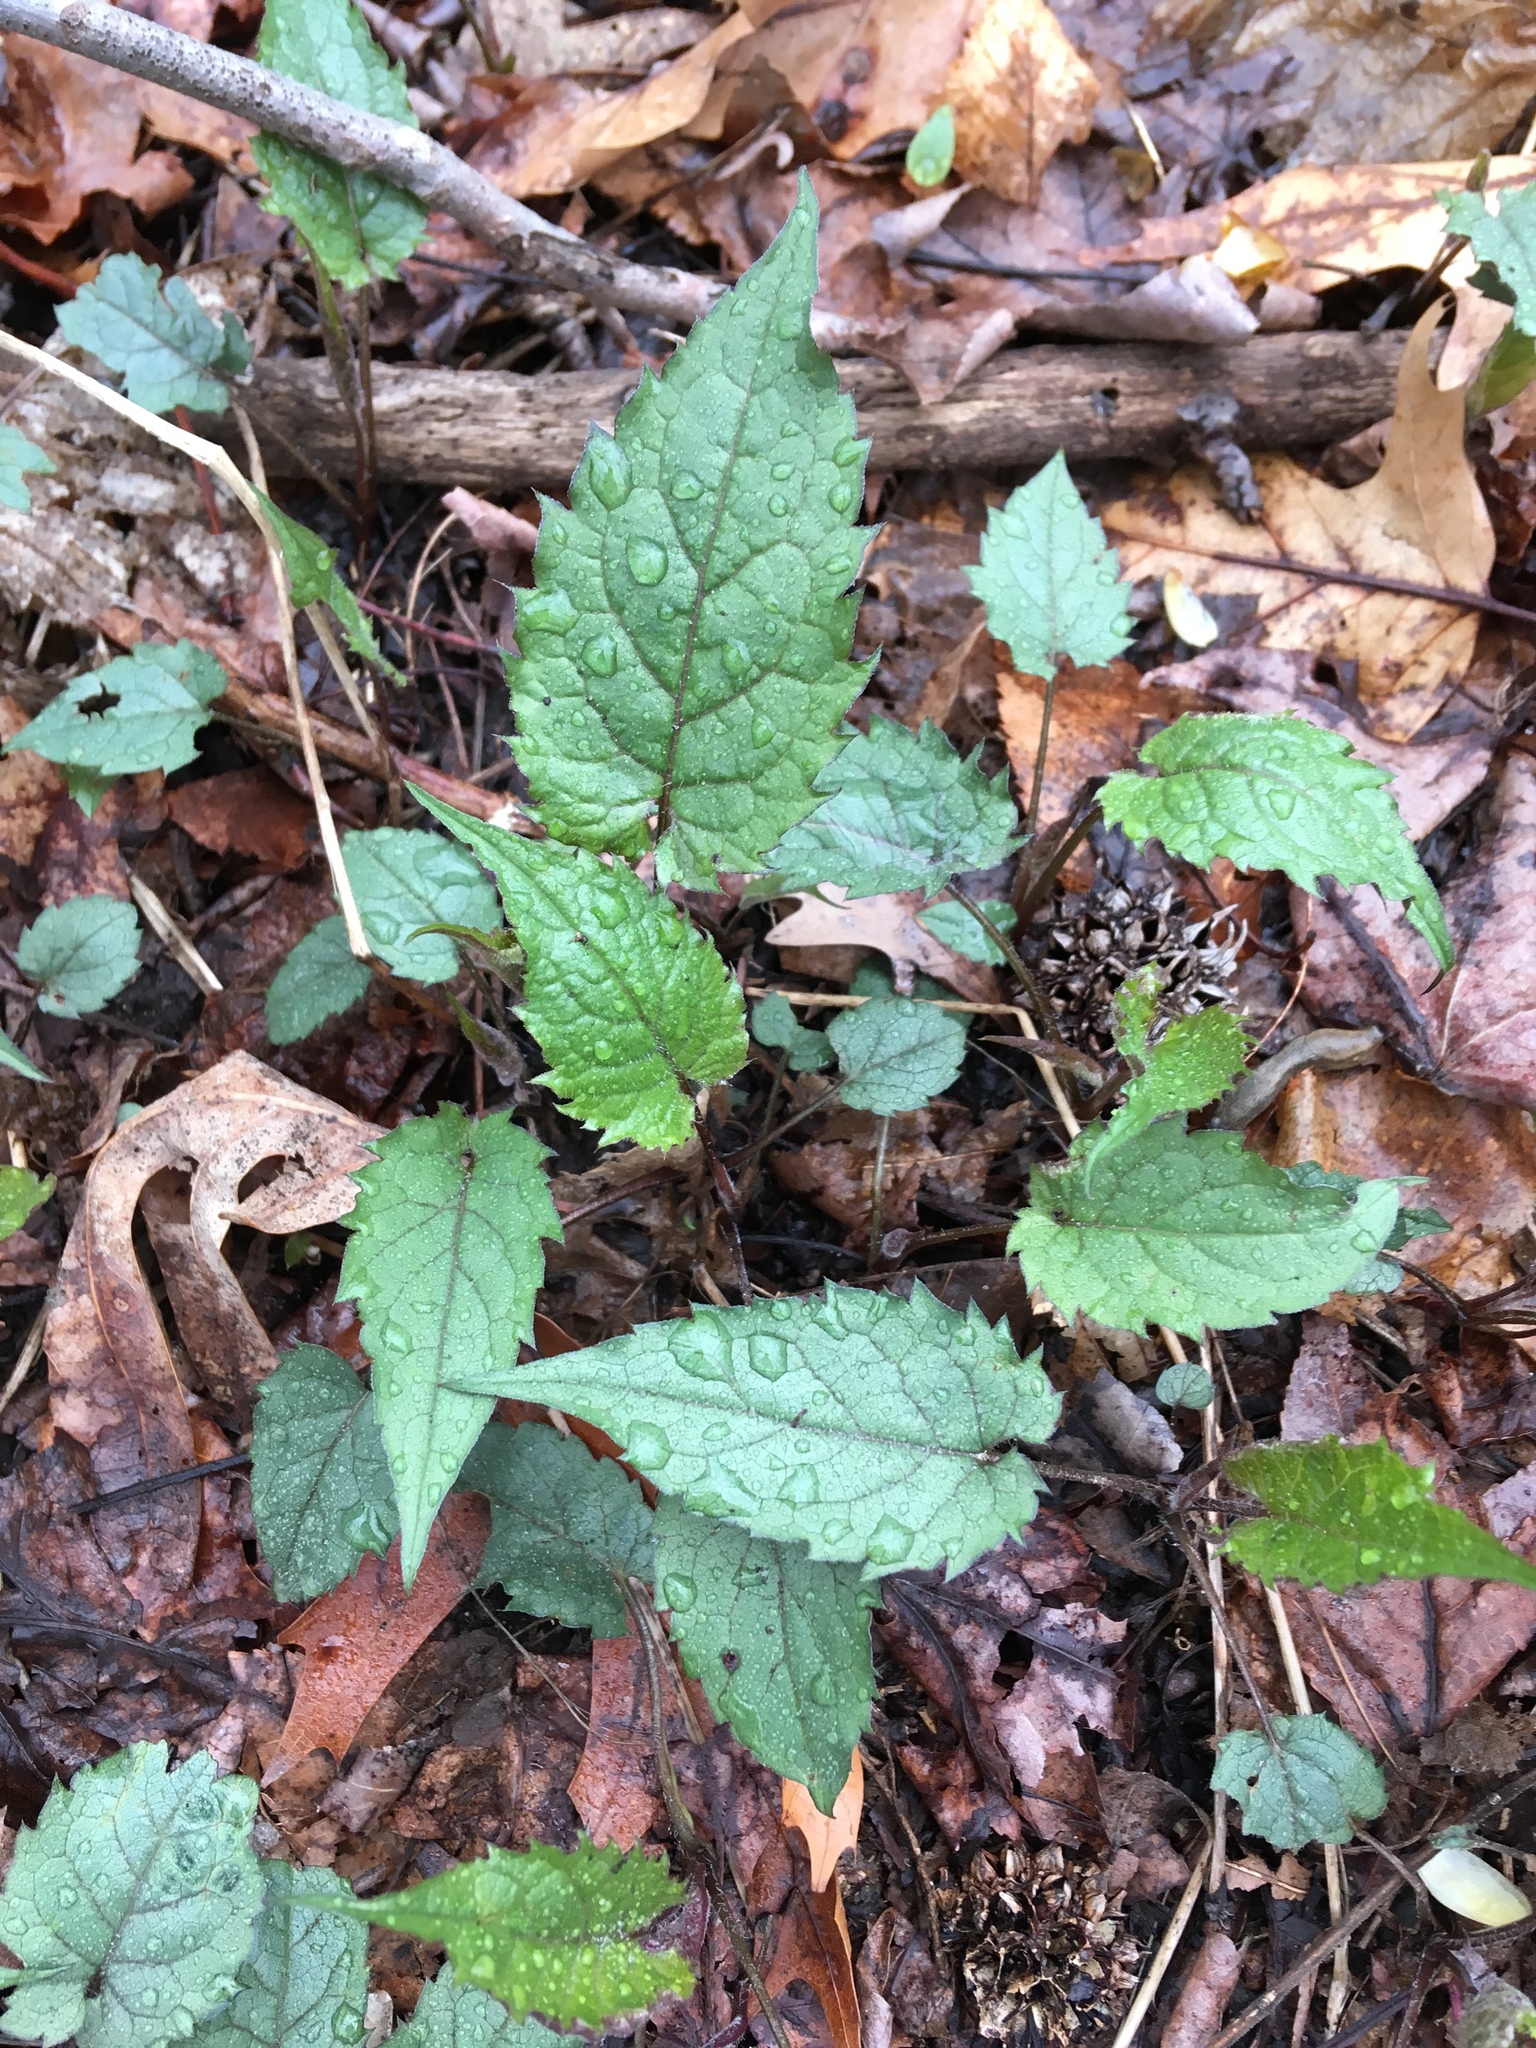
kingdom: Plantae
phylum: Tracheophyta
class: Magnoliopsida
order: Asterales
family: Asteraceae
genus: Eurybia
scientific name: Eurybia divaricata
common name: White wood aster
